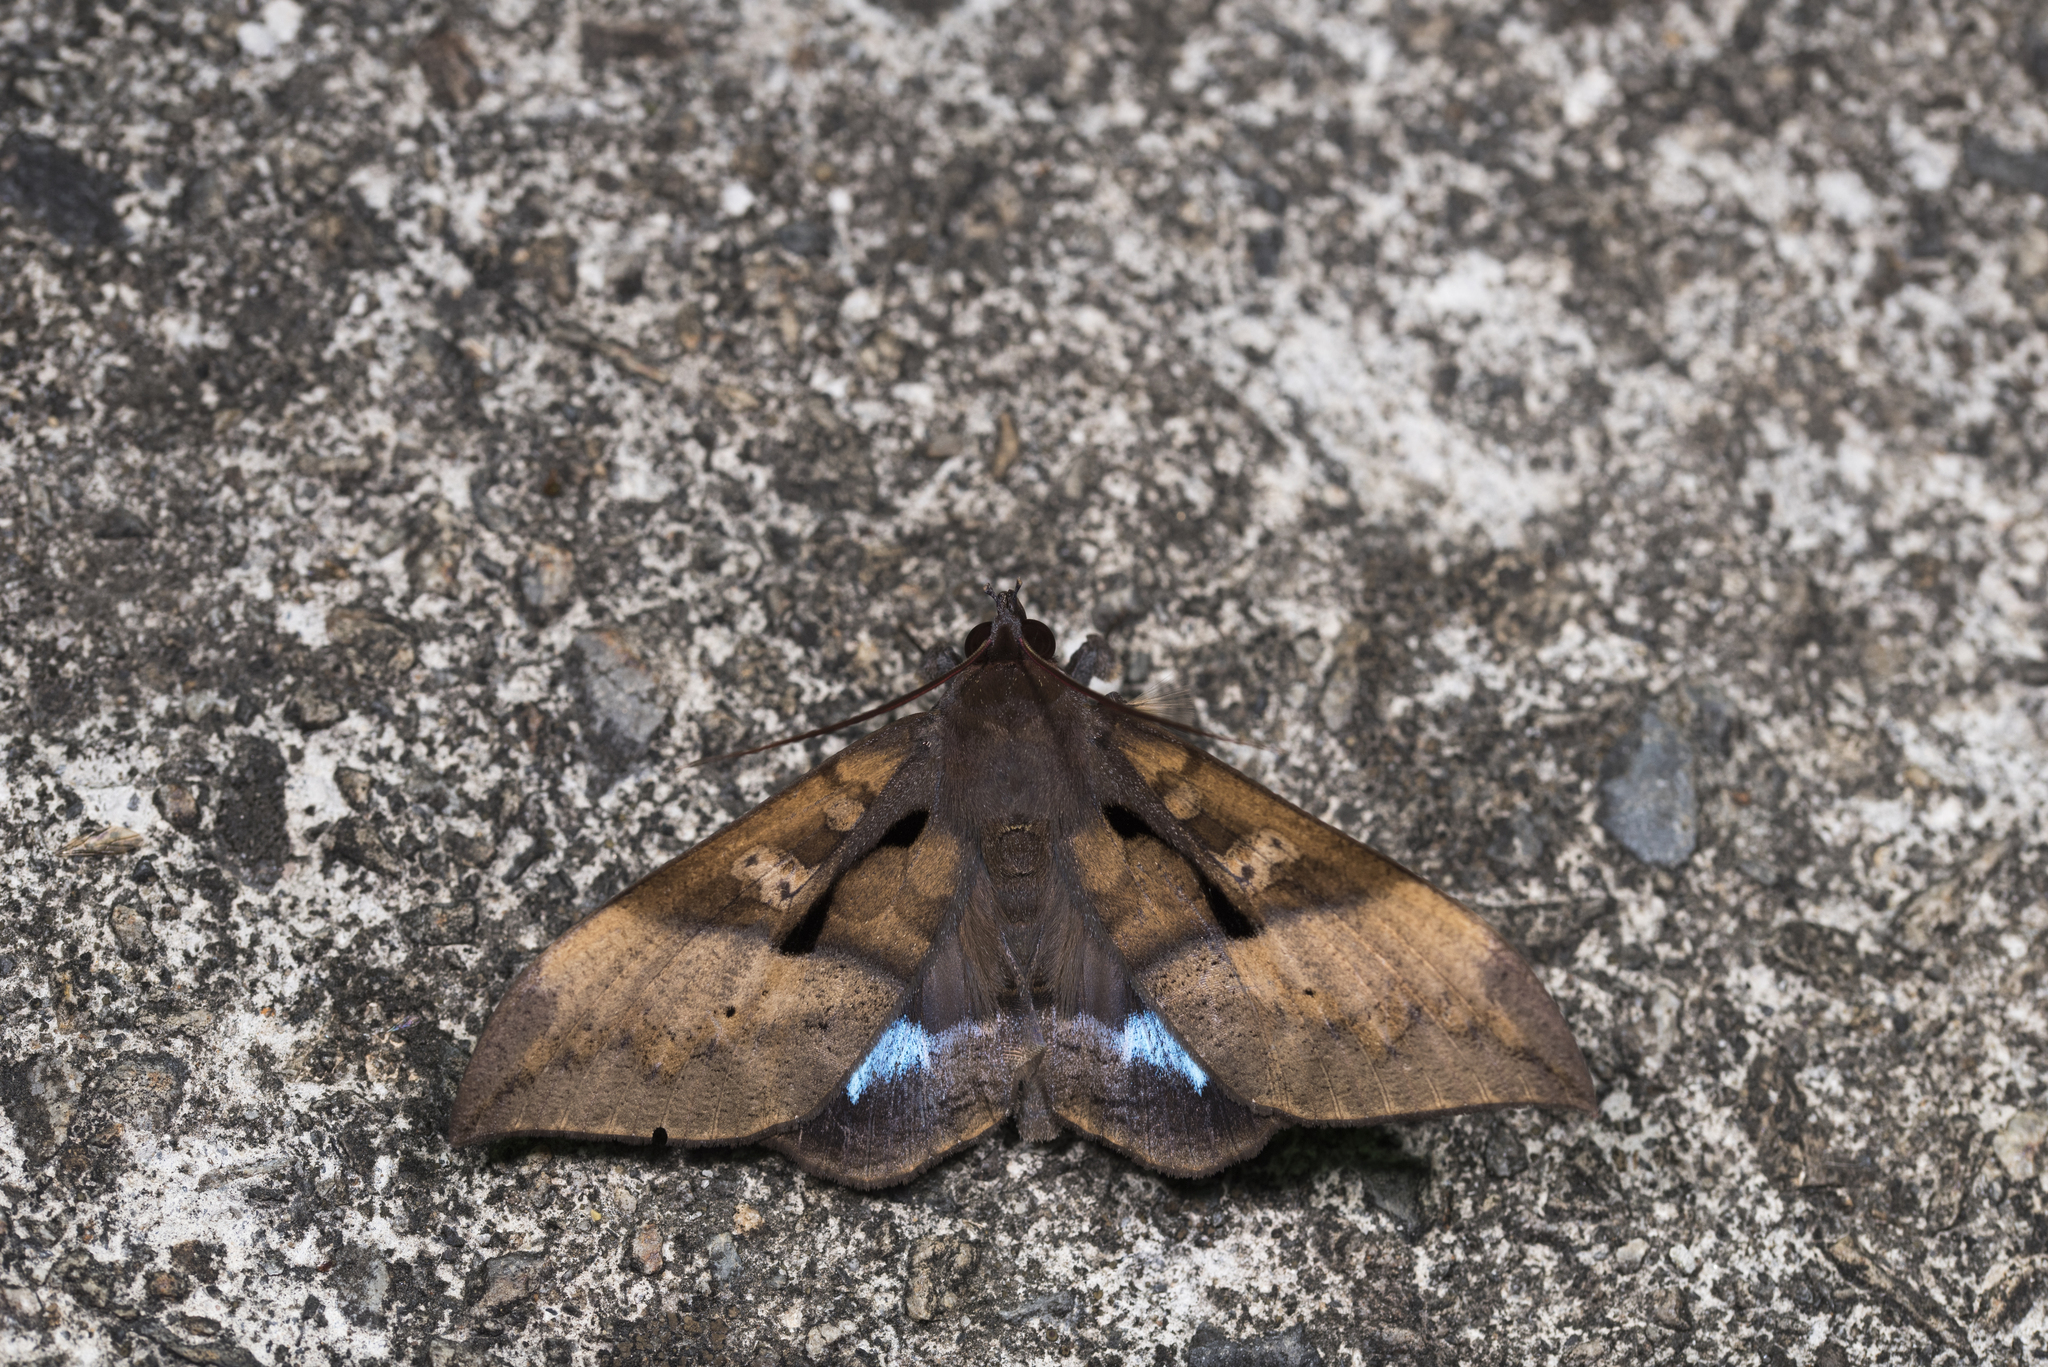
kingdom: Animalia
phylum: Arthropoda
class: Insecta
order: Lepidoptera
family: Erebidae
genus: Ischyja
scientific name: Ischyja manlia
